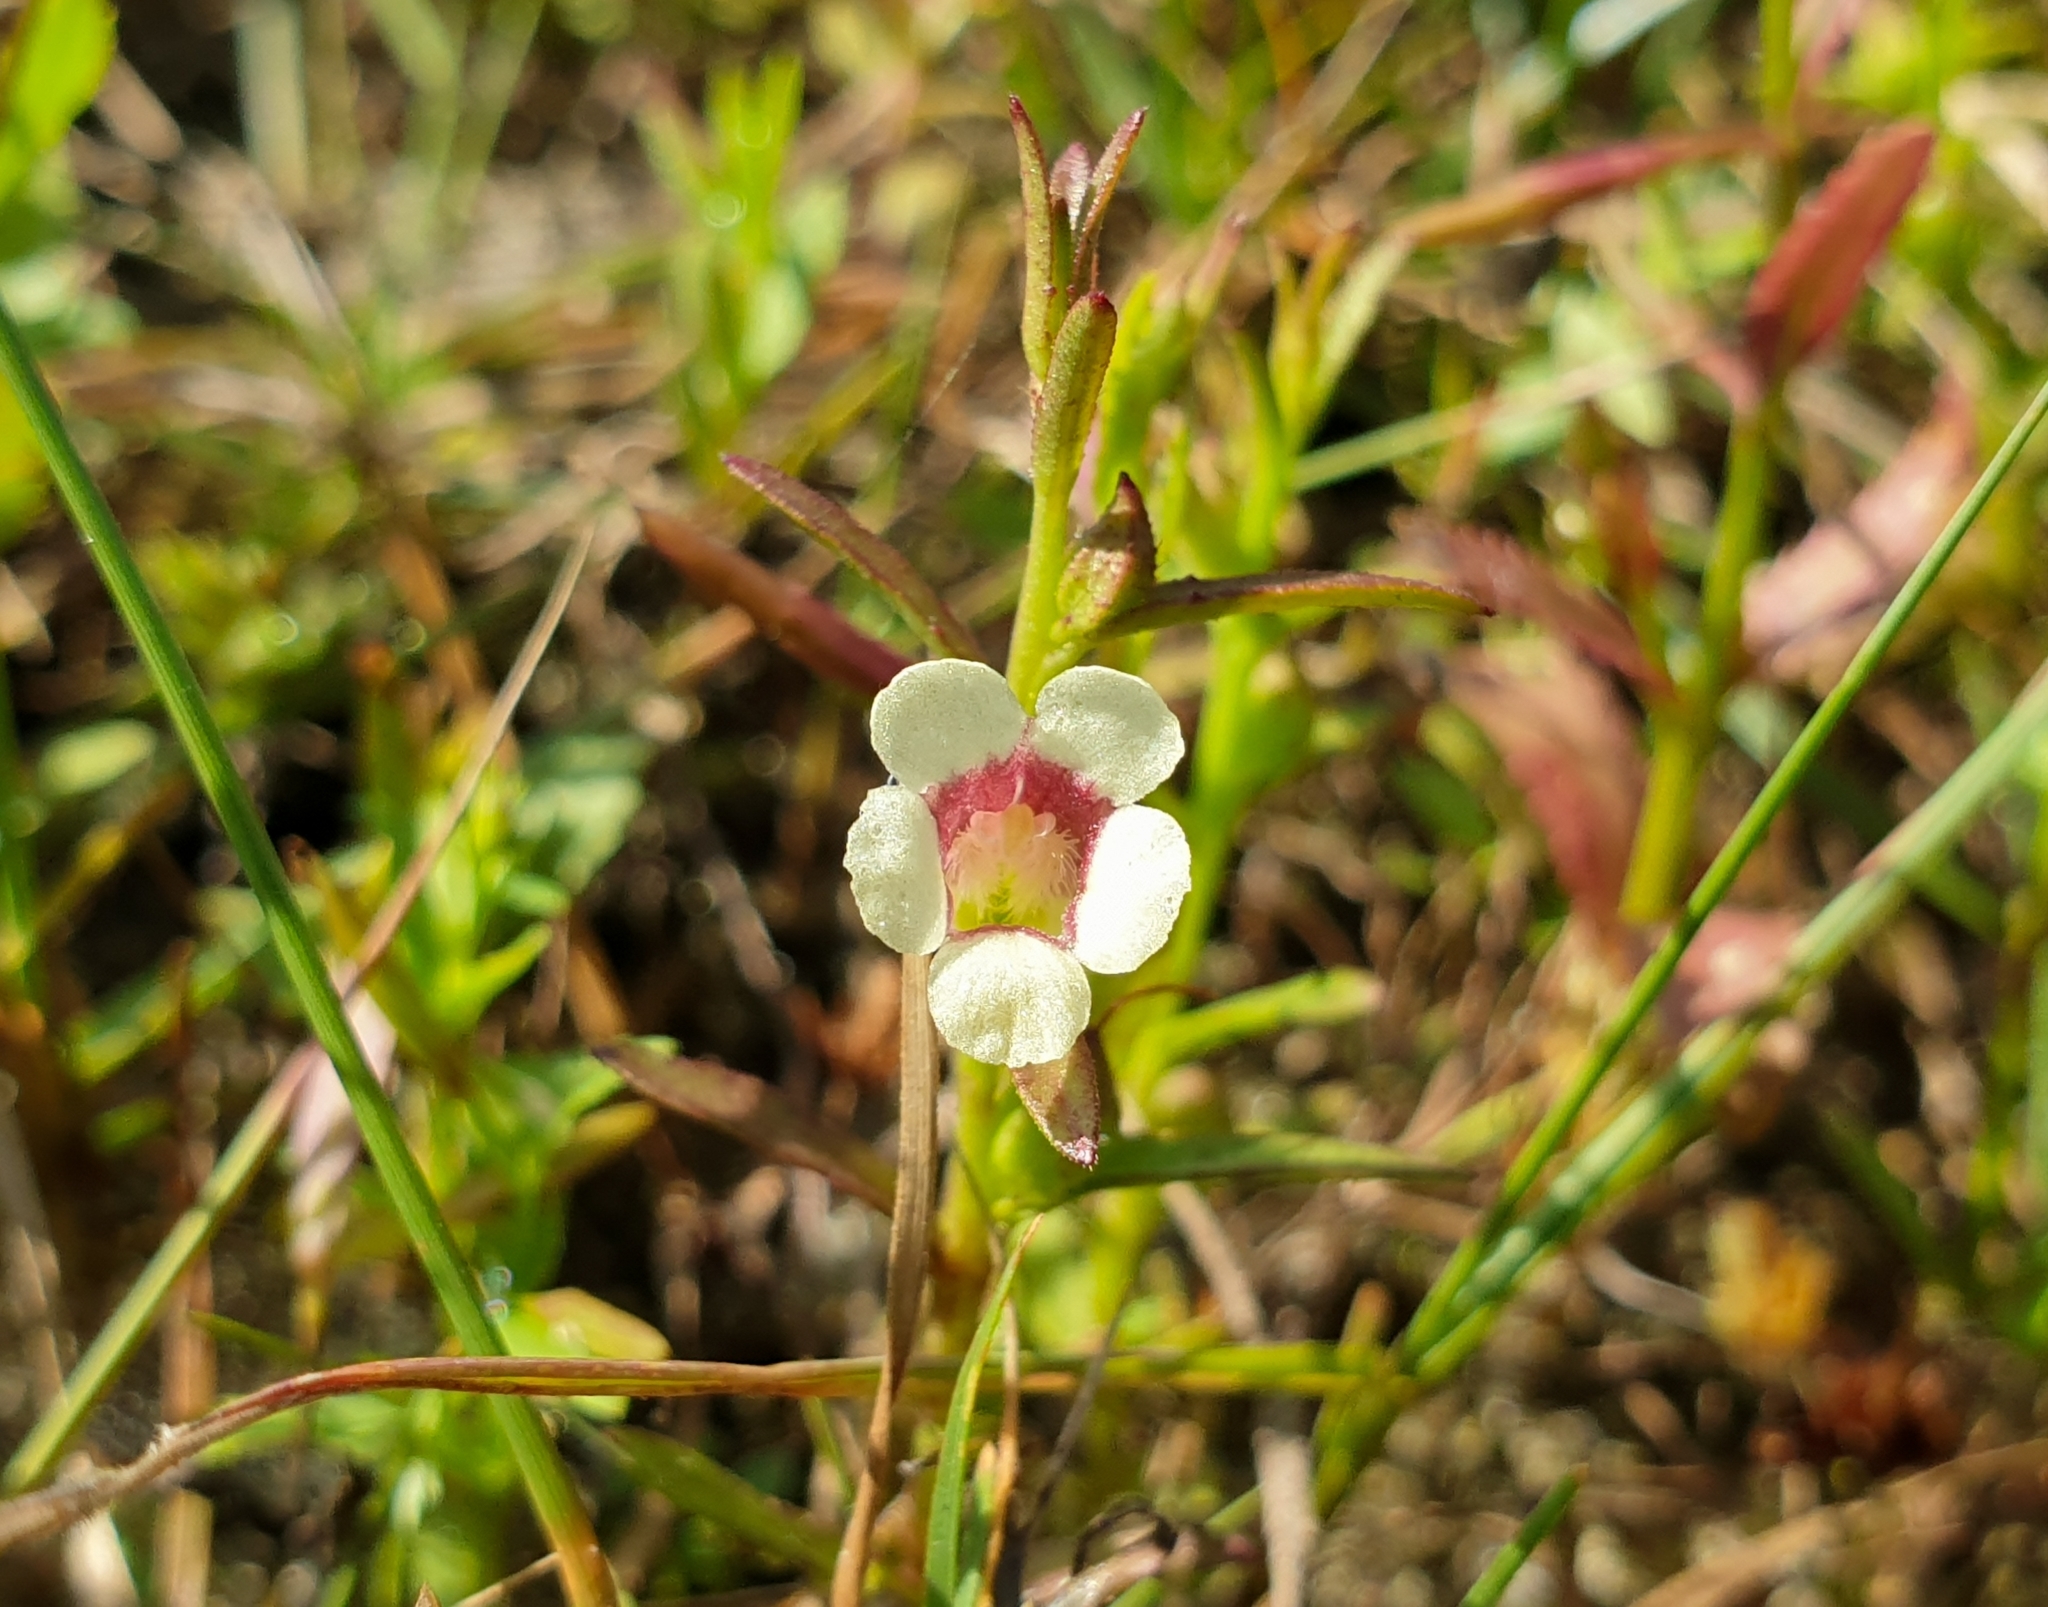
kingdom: Plantae
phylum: Tracheophyta
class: Magnoliopsida
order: Lamiales
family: Orobanchaceae
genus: Centranthera
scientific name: Centranthera tranquebarica
